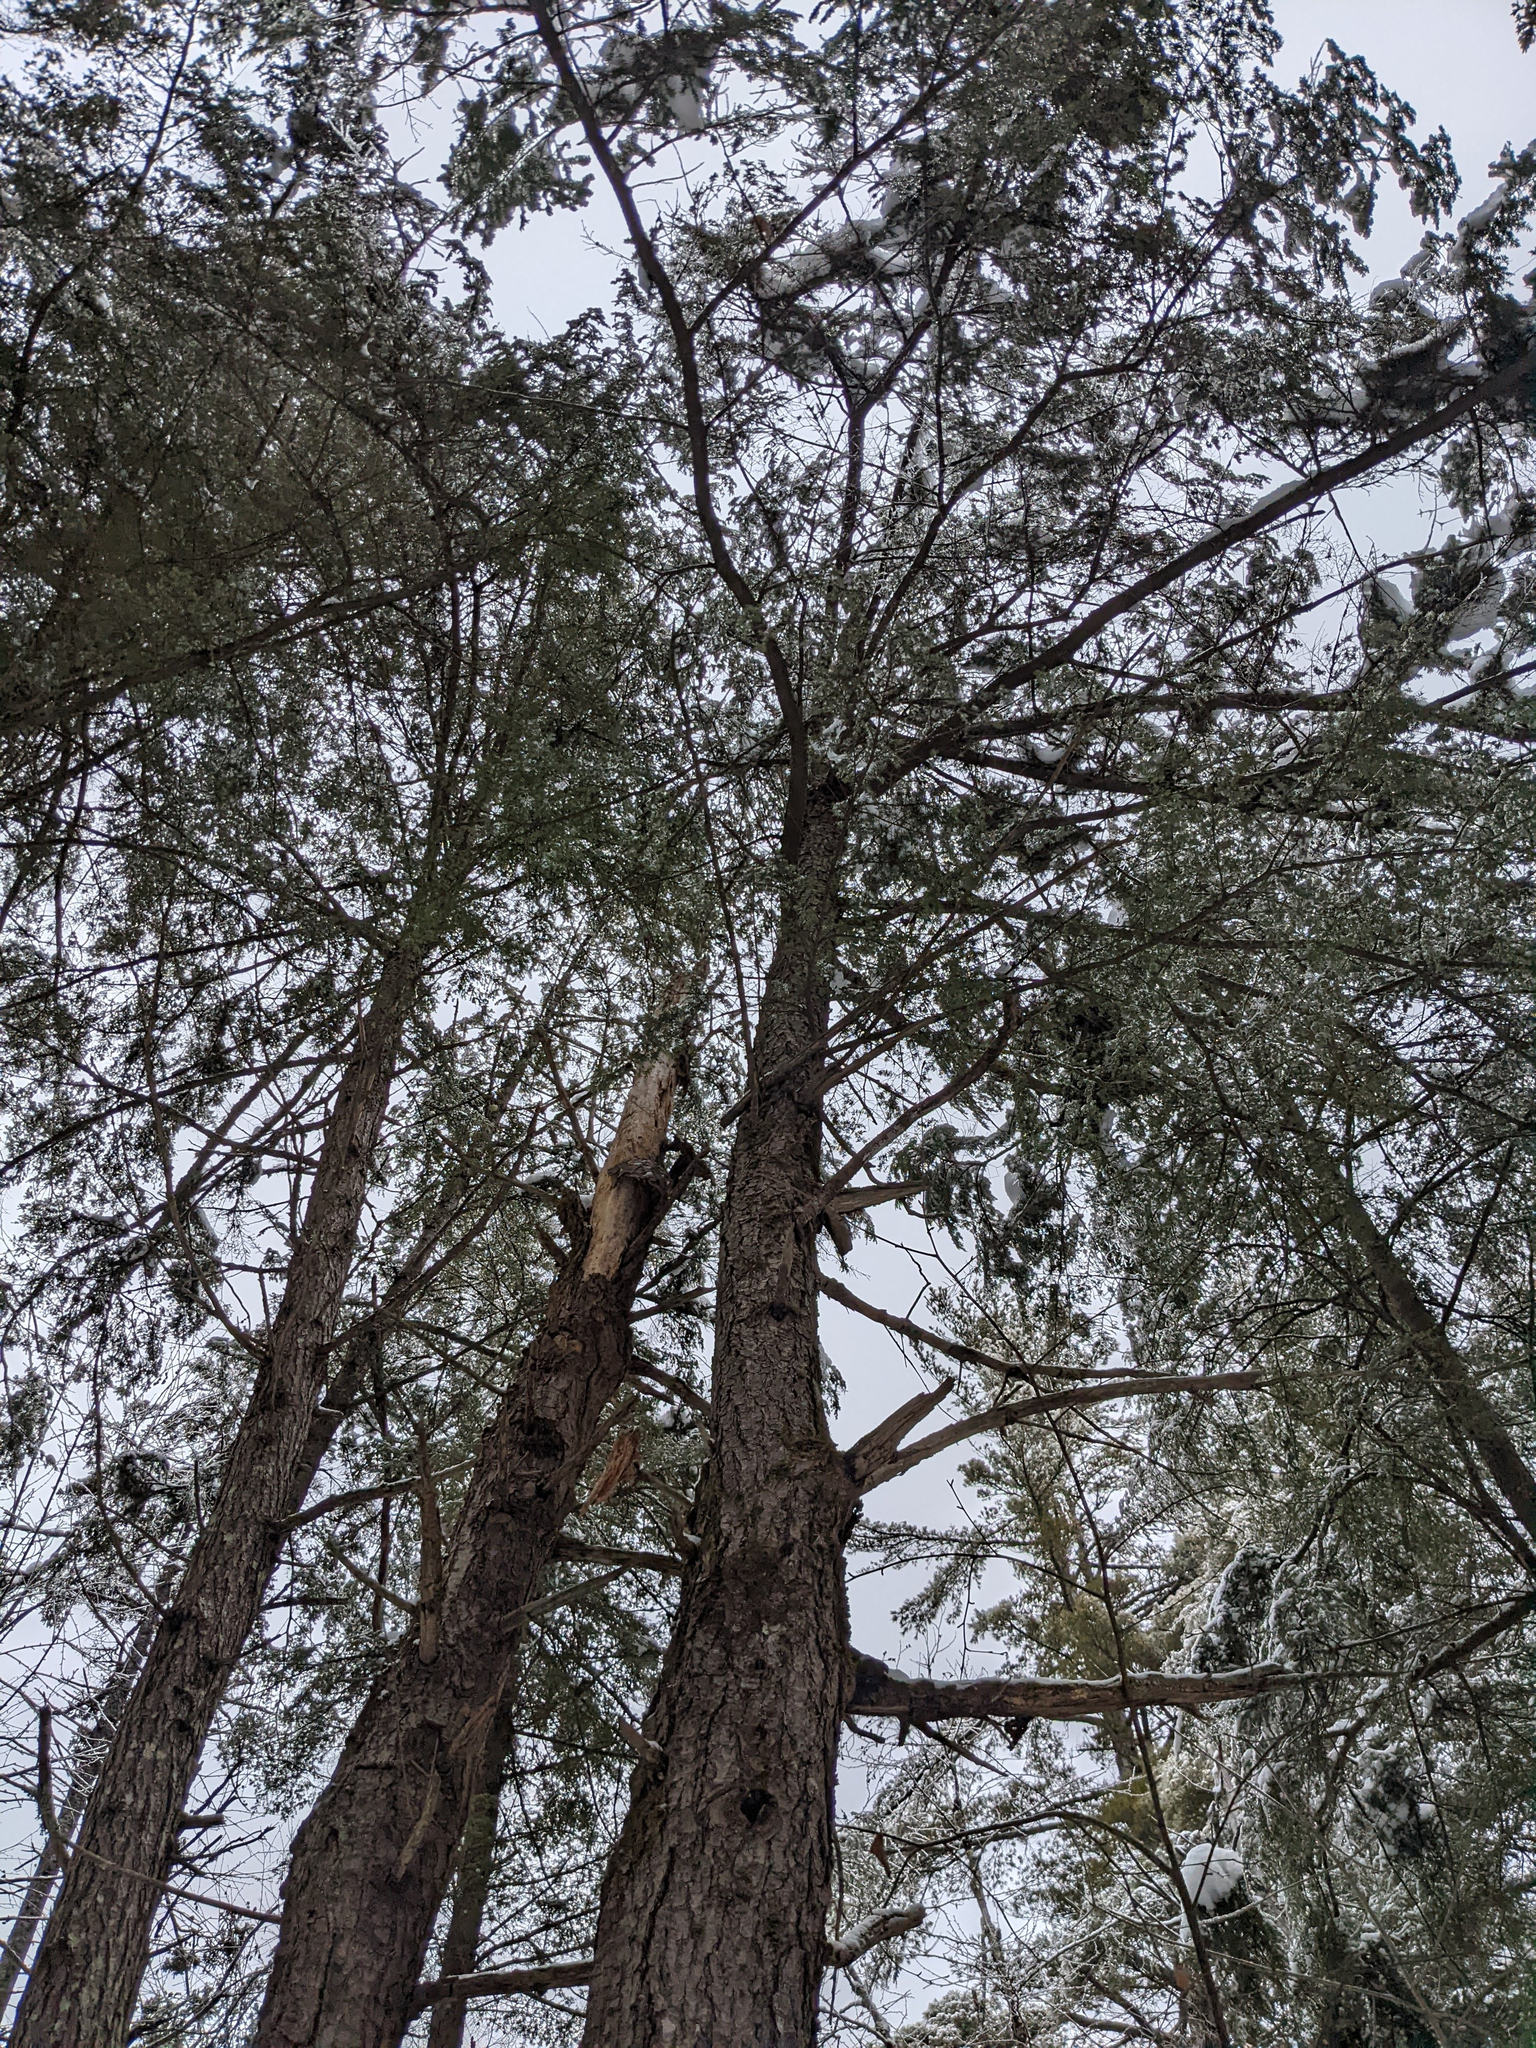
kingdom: Plantae
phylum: Tracheophyta
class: Pinopsida
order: Pinales
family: Pinaceae
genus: Tsuga
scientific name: Tsuga canadensis
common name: Eastern hemlock
